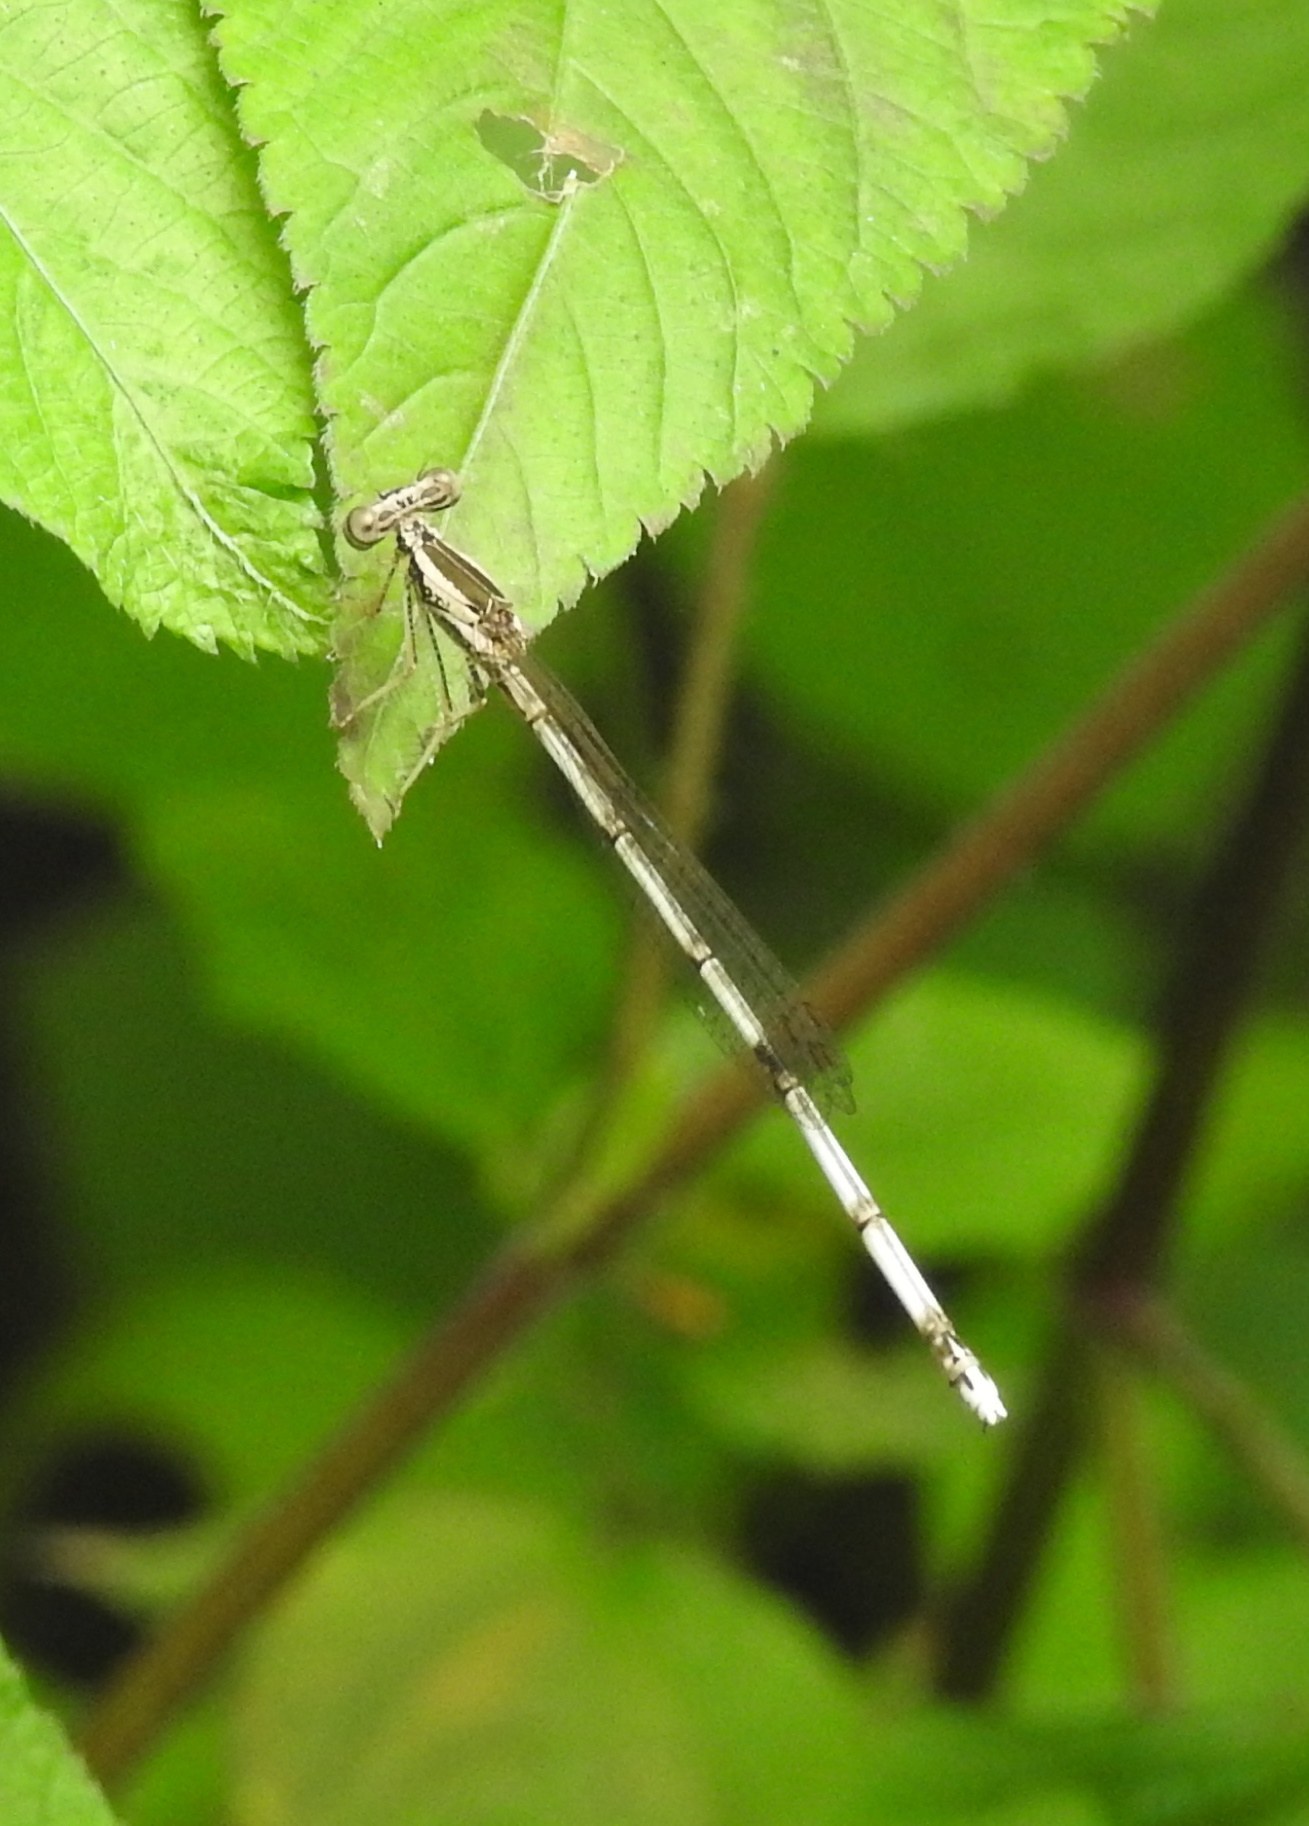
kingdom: Animalia
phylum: Arthropoda
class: Insecta
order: Odonata
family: Platycnemididae
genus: Copera
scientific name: Copera marginipes
